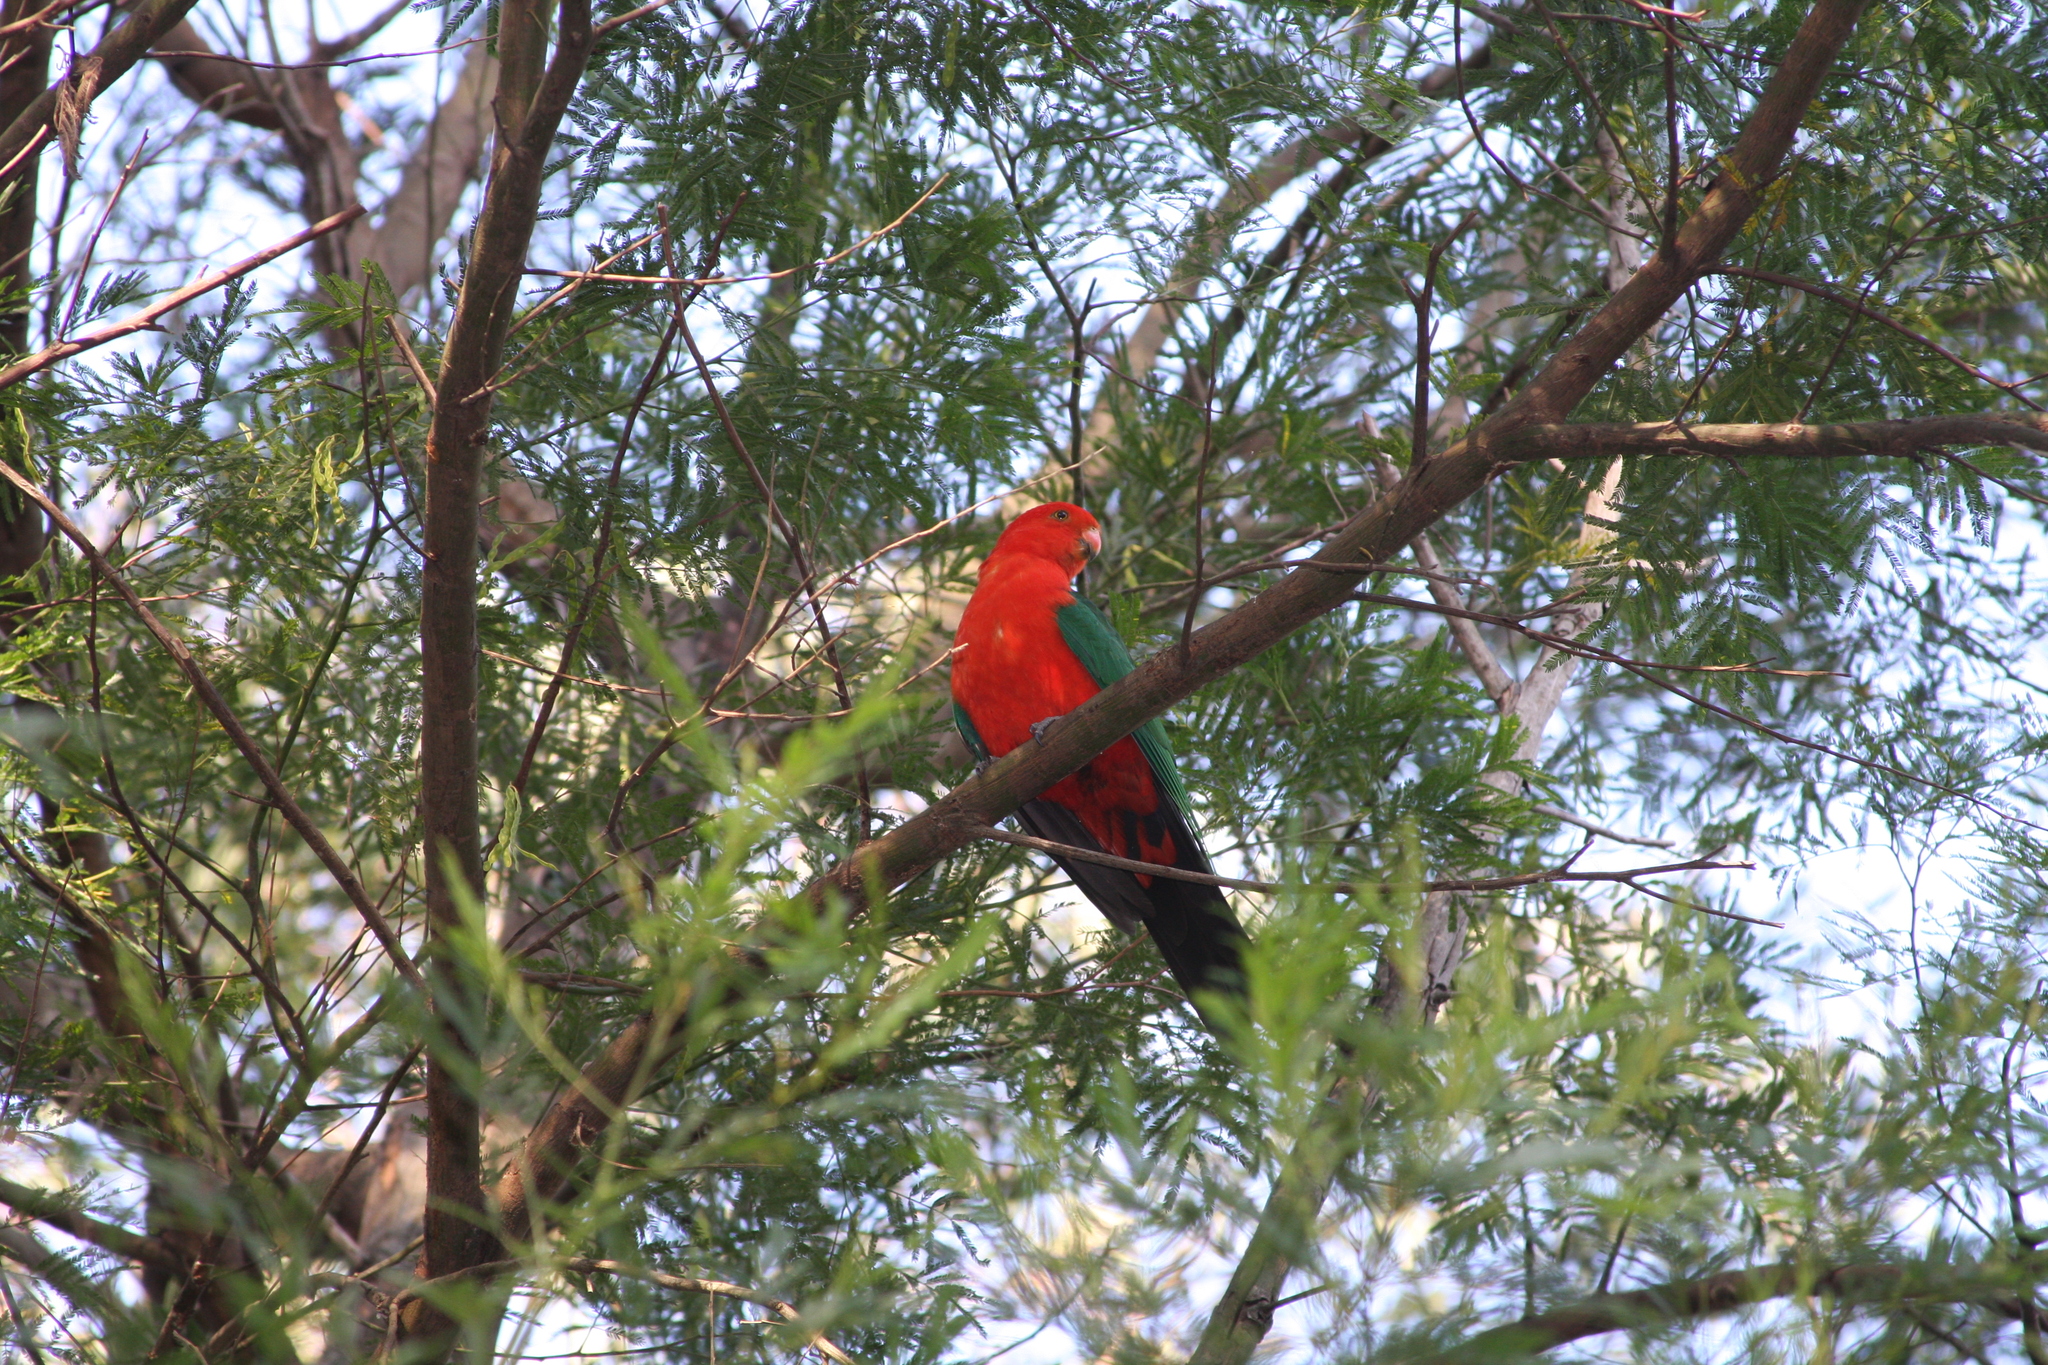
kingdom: Animalia
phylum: Chordata
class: Aves
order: Psittaciformes
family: Psittacidae
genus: Alisterus
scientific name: Alisterus scapularis
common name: Australian king parrot
